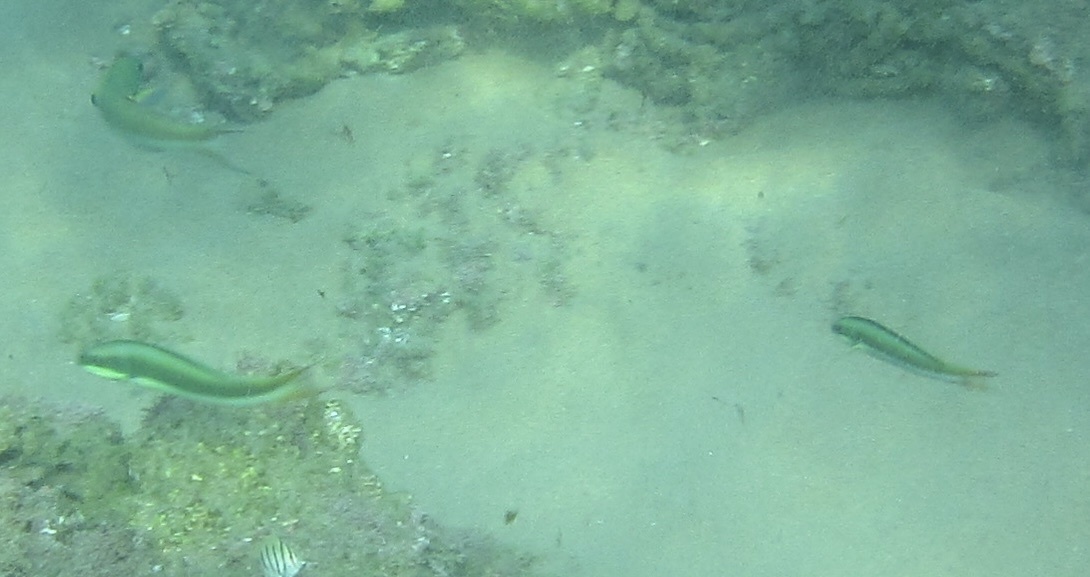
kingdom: Animalia
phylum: Chordata
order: Perciformes
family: Labridae
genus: Thalassoma
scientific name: Thalassoma amblycephalum
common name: Bluehead wrasse
